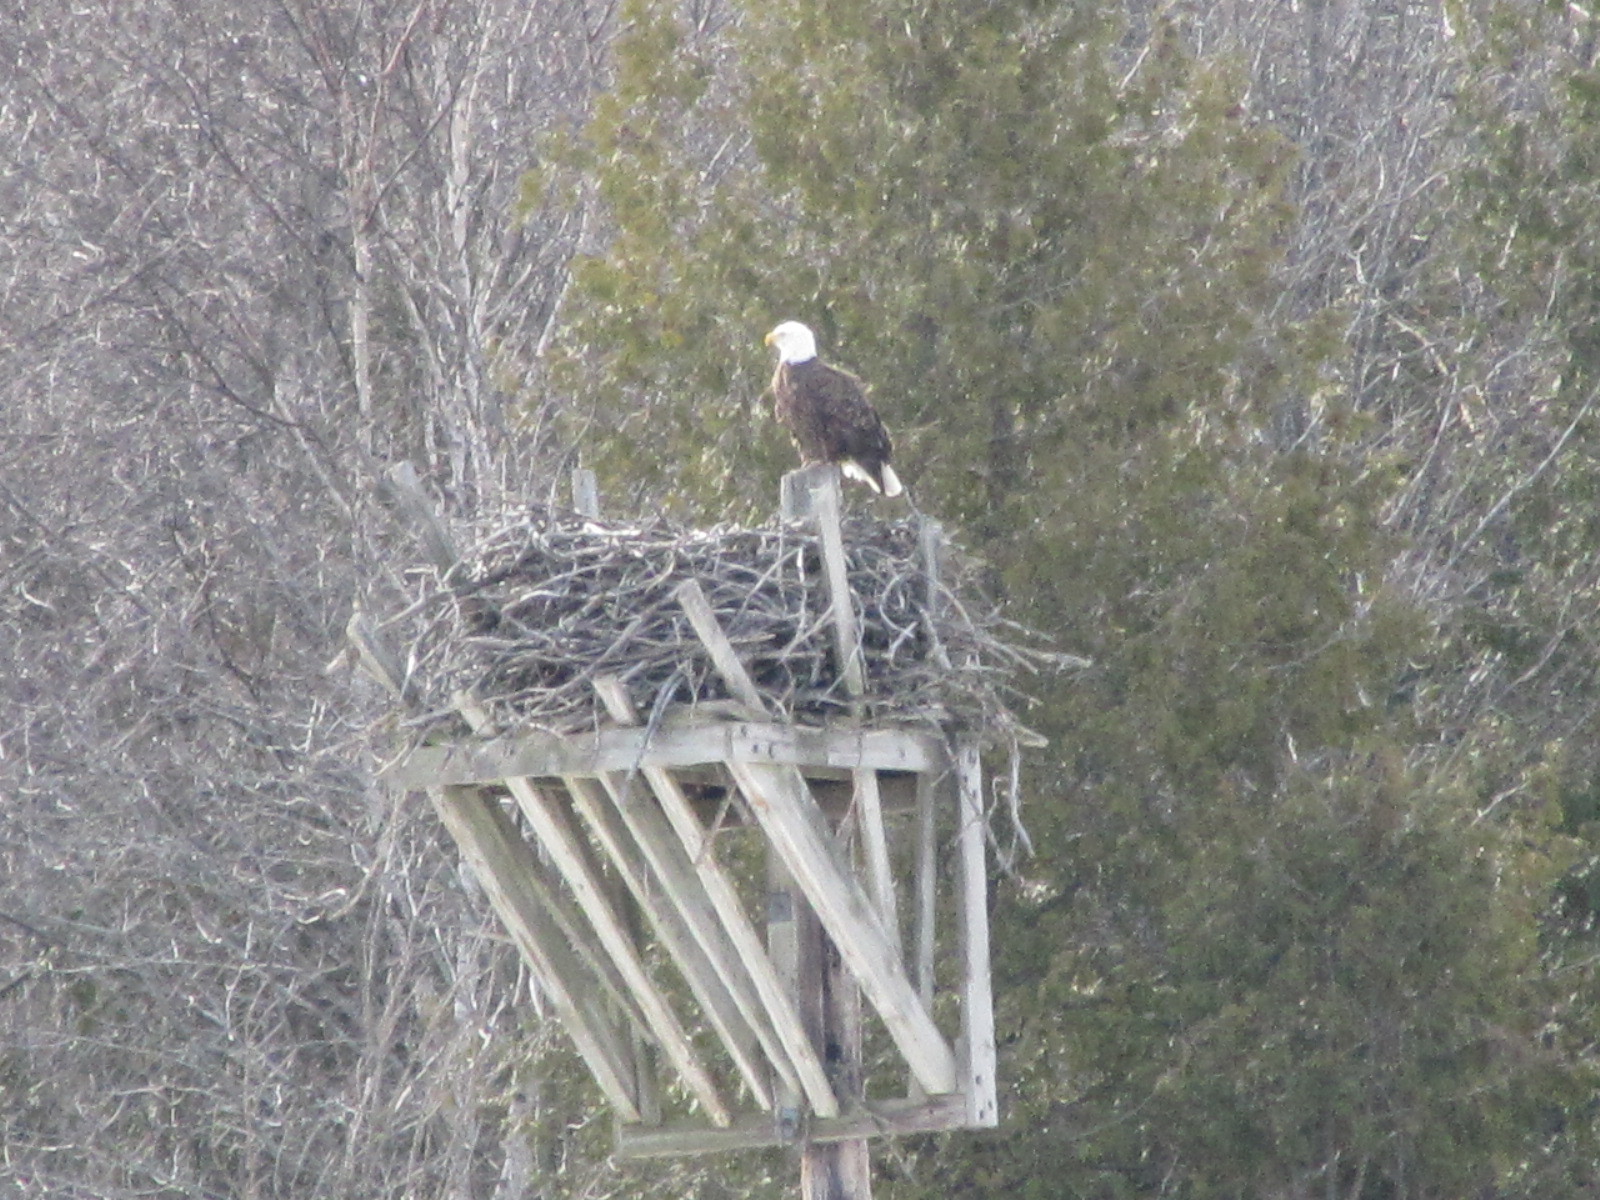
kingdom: Animalia
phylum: Chordata
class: Aves
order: Accipitriformes
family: Accipitridae
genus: Haliaeetus
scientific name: Haliaeetus leucocephalus
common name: Bald eagle
